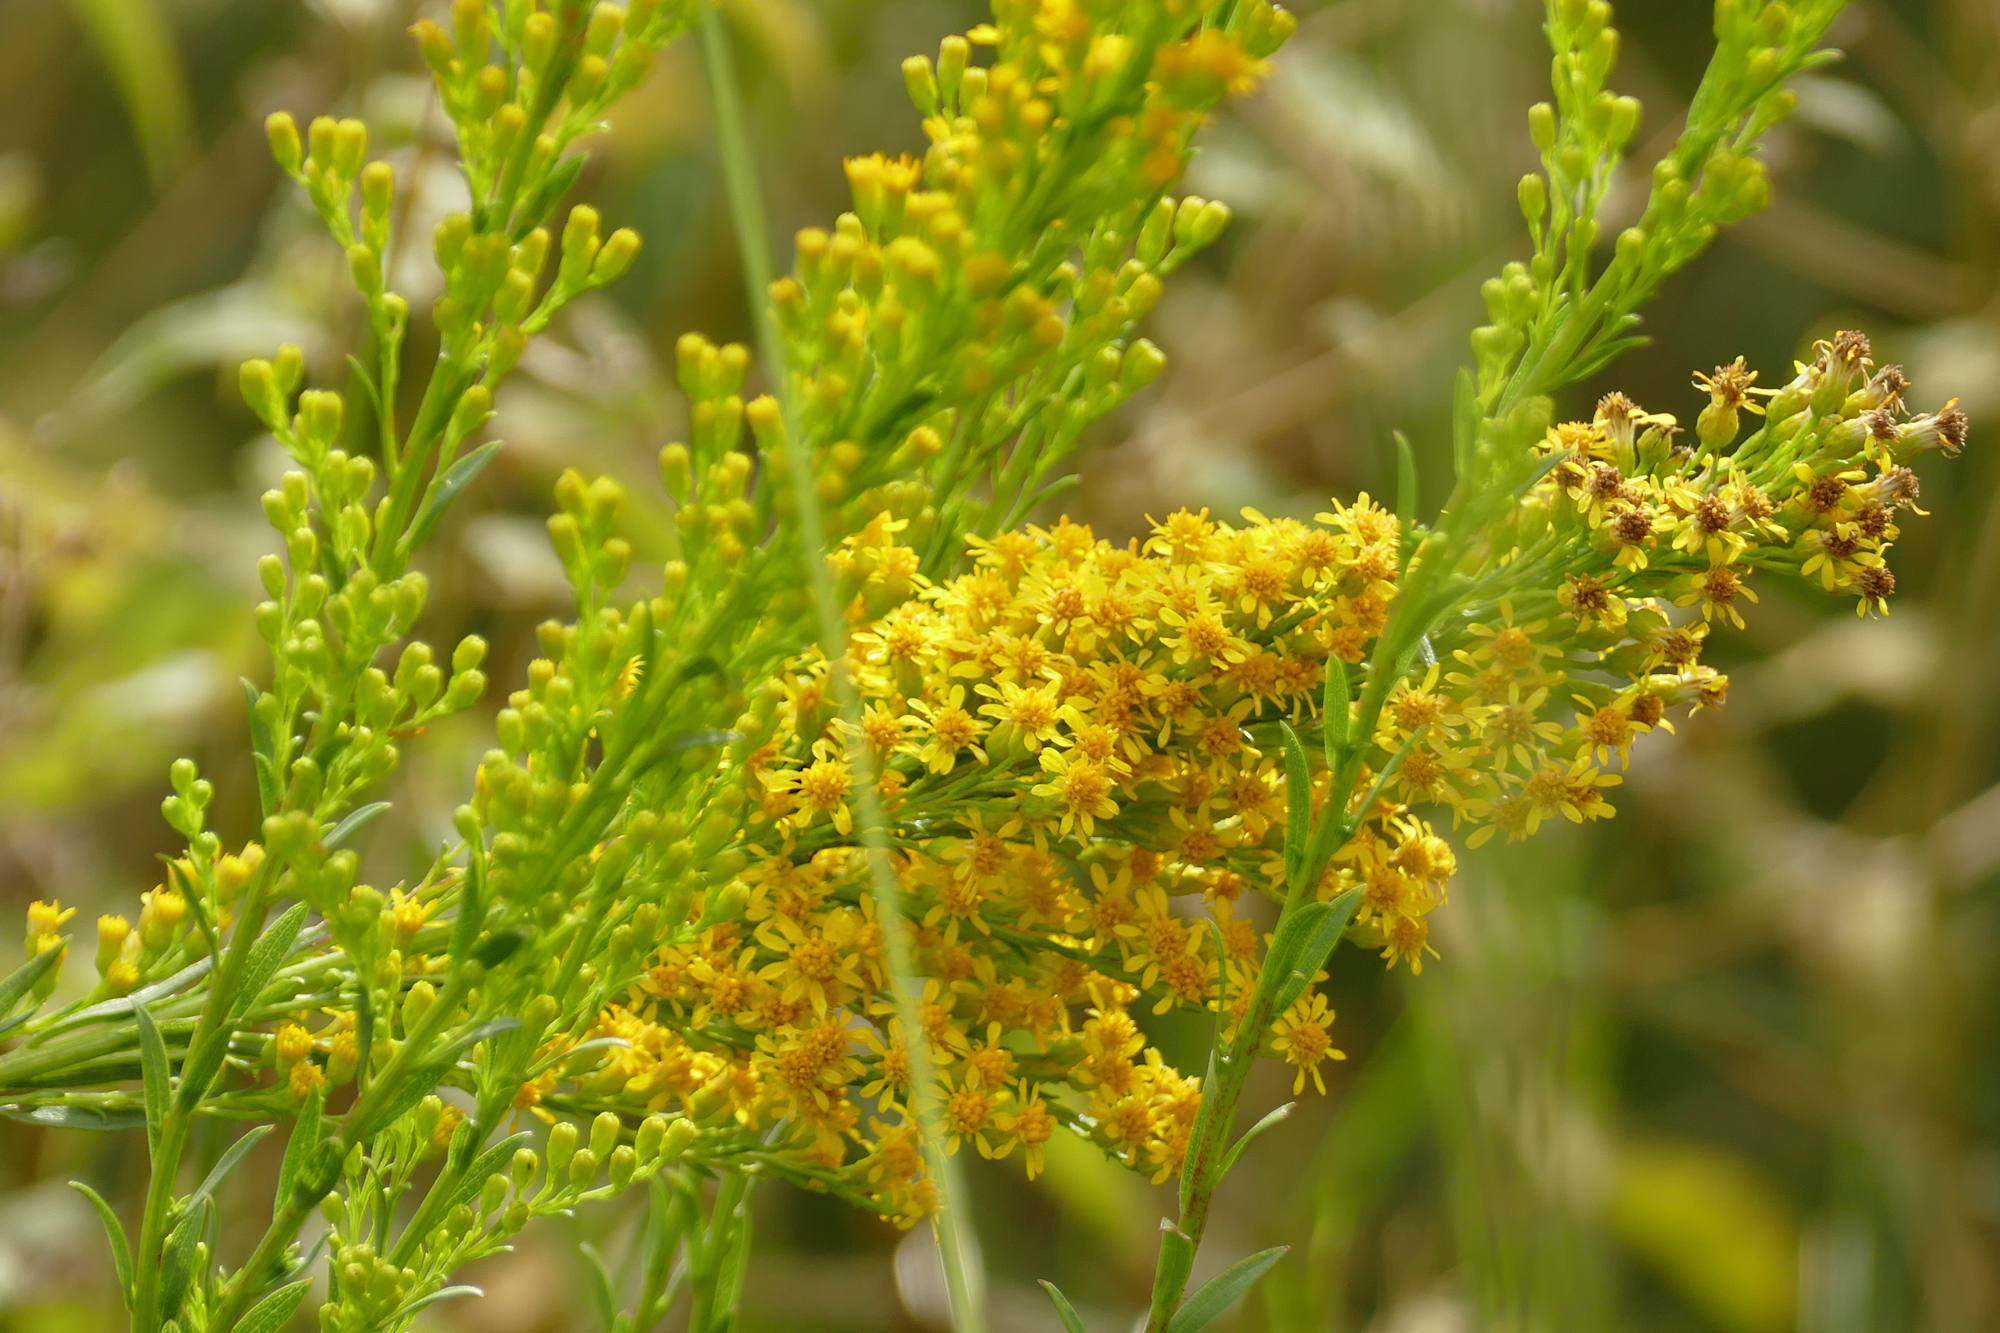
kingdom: Plantae
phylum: Tracheophyta
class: Magnoliopsida
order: Asterales
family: Asteraceae
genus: Solidago
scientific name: Solidago mexicana
